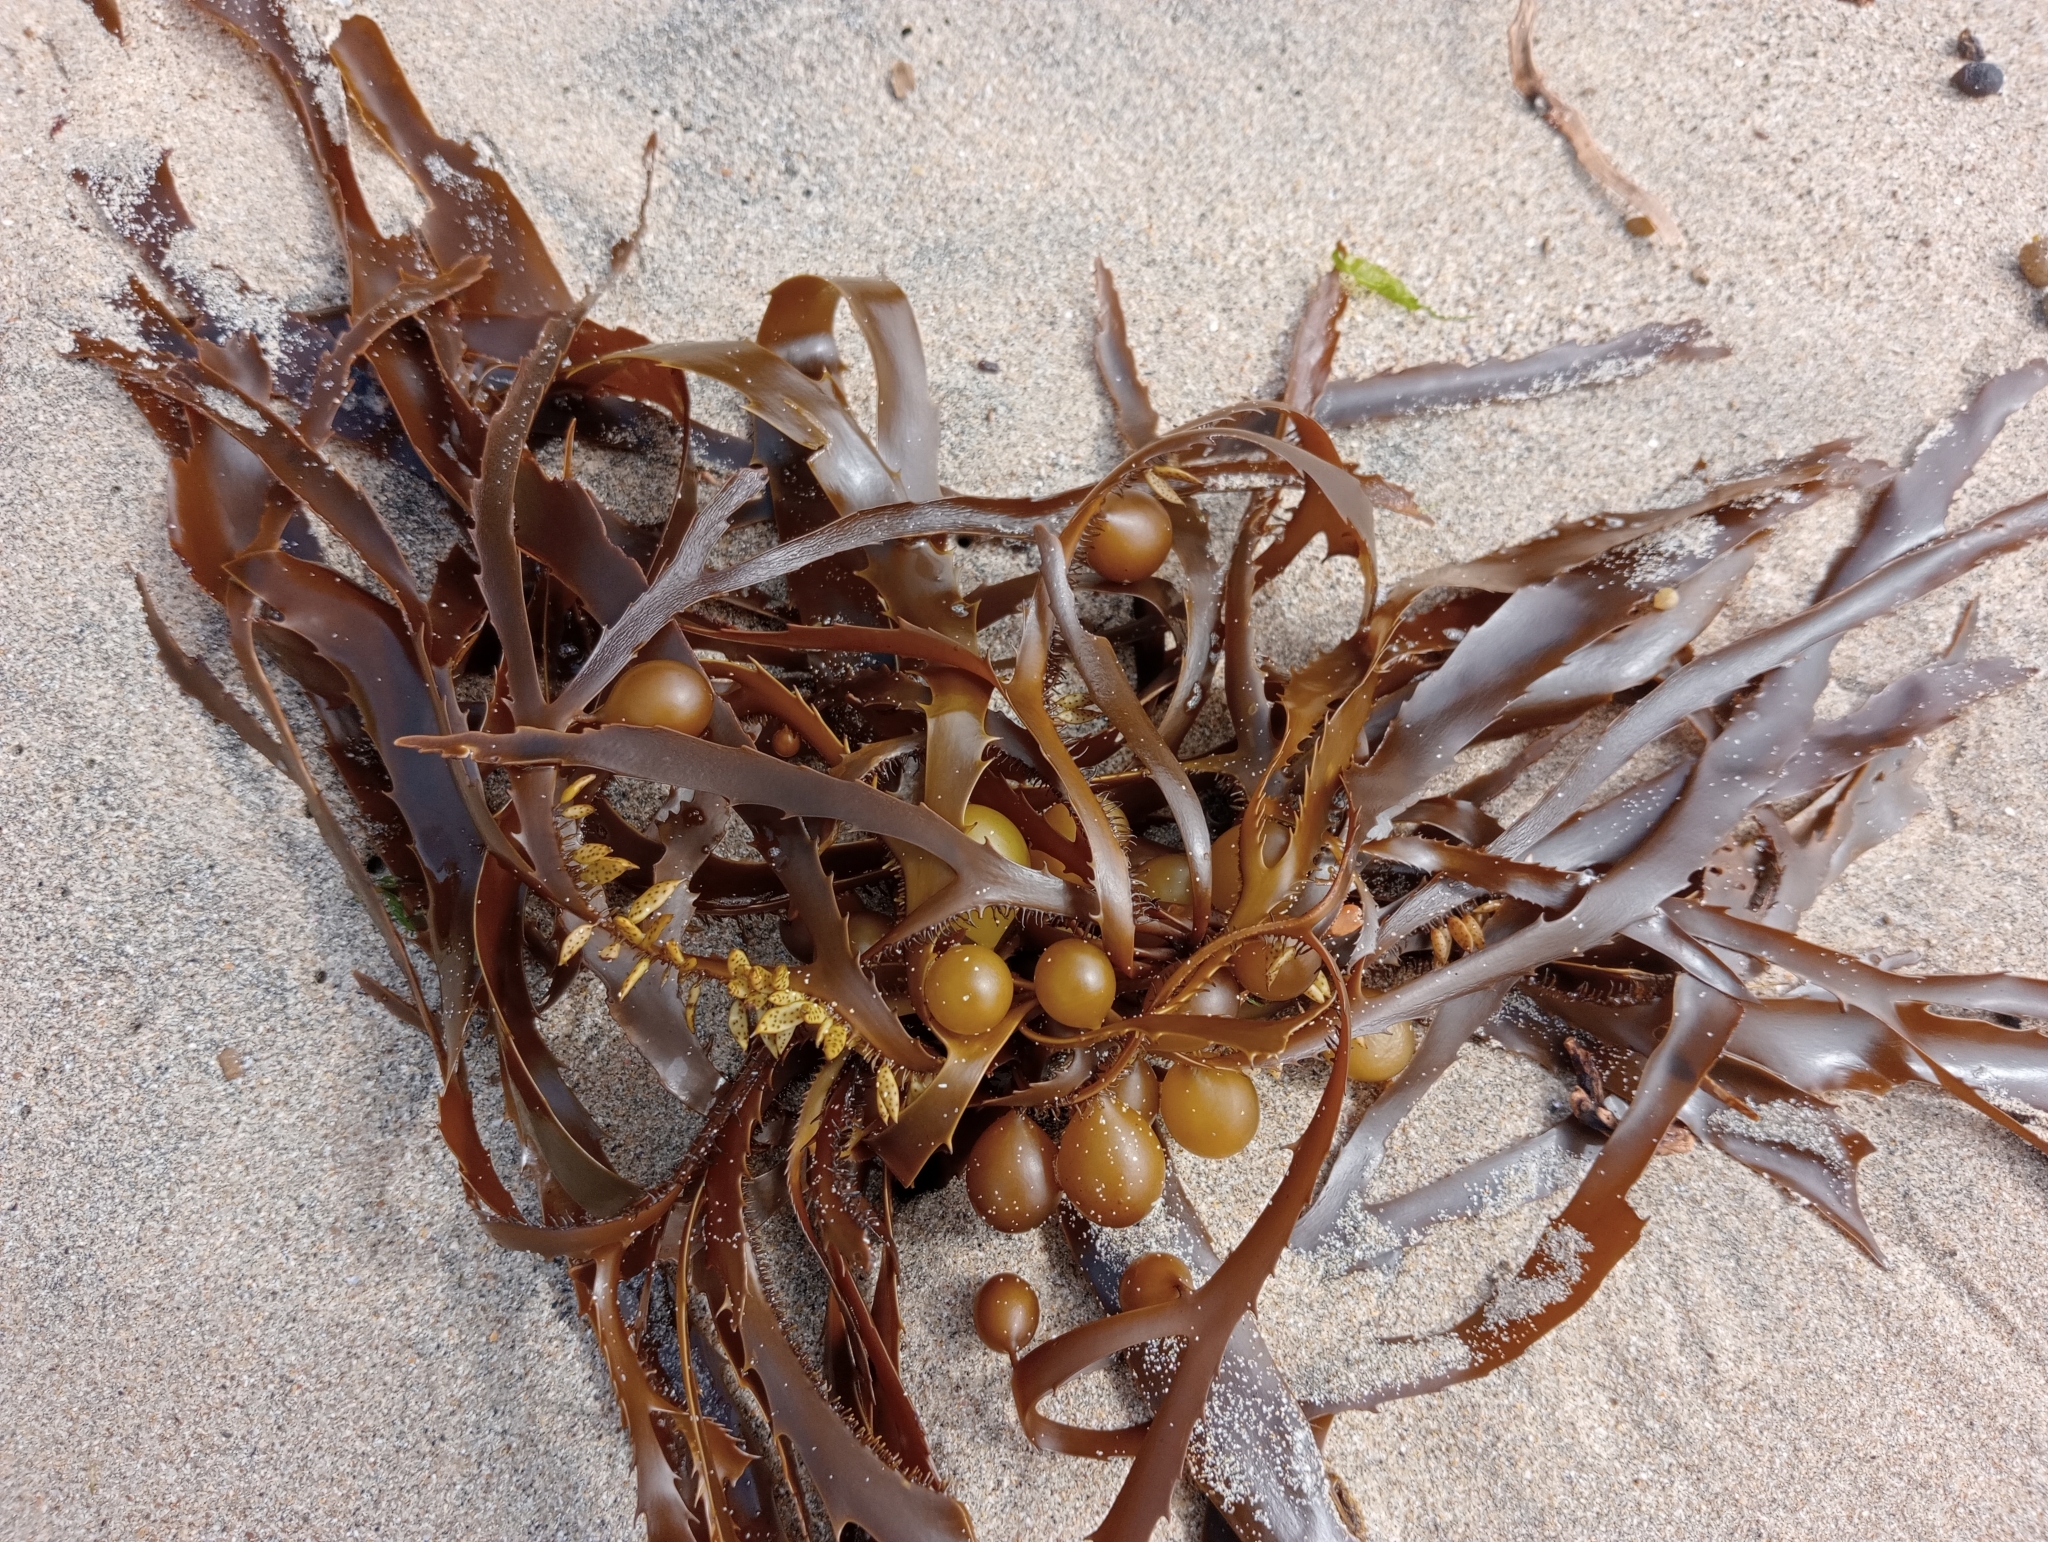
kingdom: Chromista
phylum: Ochrophyta
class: Phaeophyceae
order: Fucales
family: Seirococcaceae
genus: Marginariella
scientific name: Marginariella urvilliana
